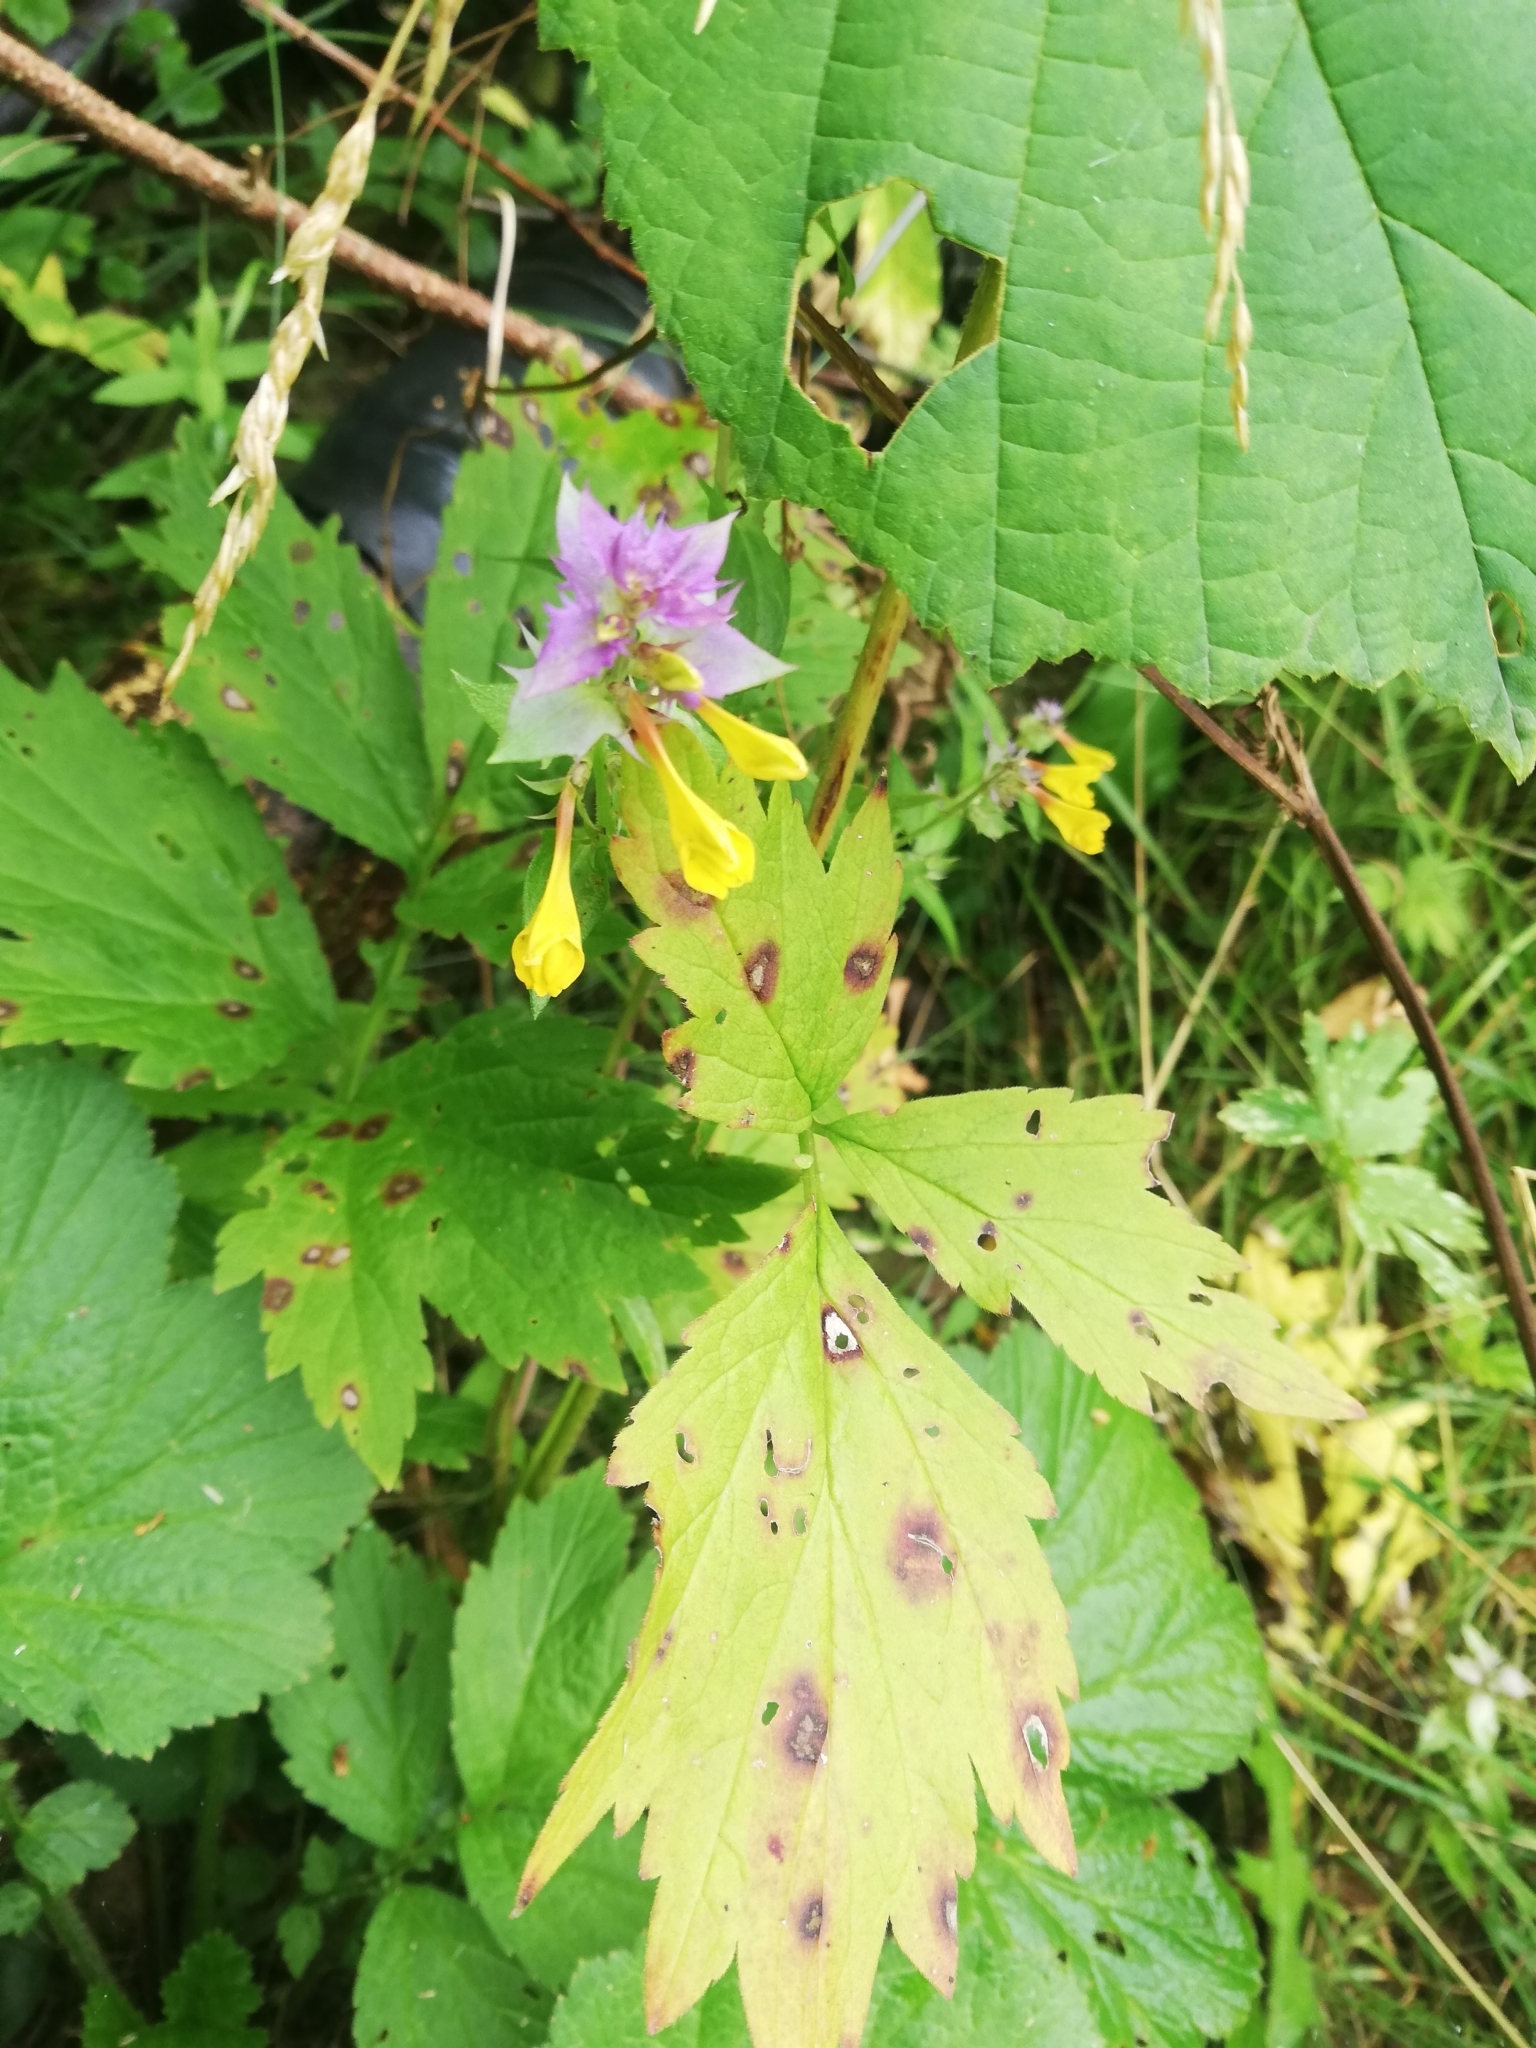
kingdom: Plantae
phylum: Tracheophyta
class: Magnoliopsida
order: Lamiales
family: Orobanchaceae
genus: Melampyrum
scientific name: Melampyrum nemorosum
